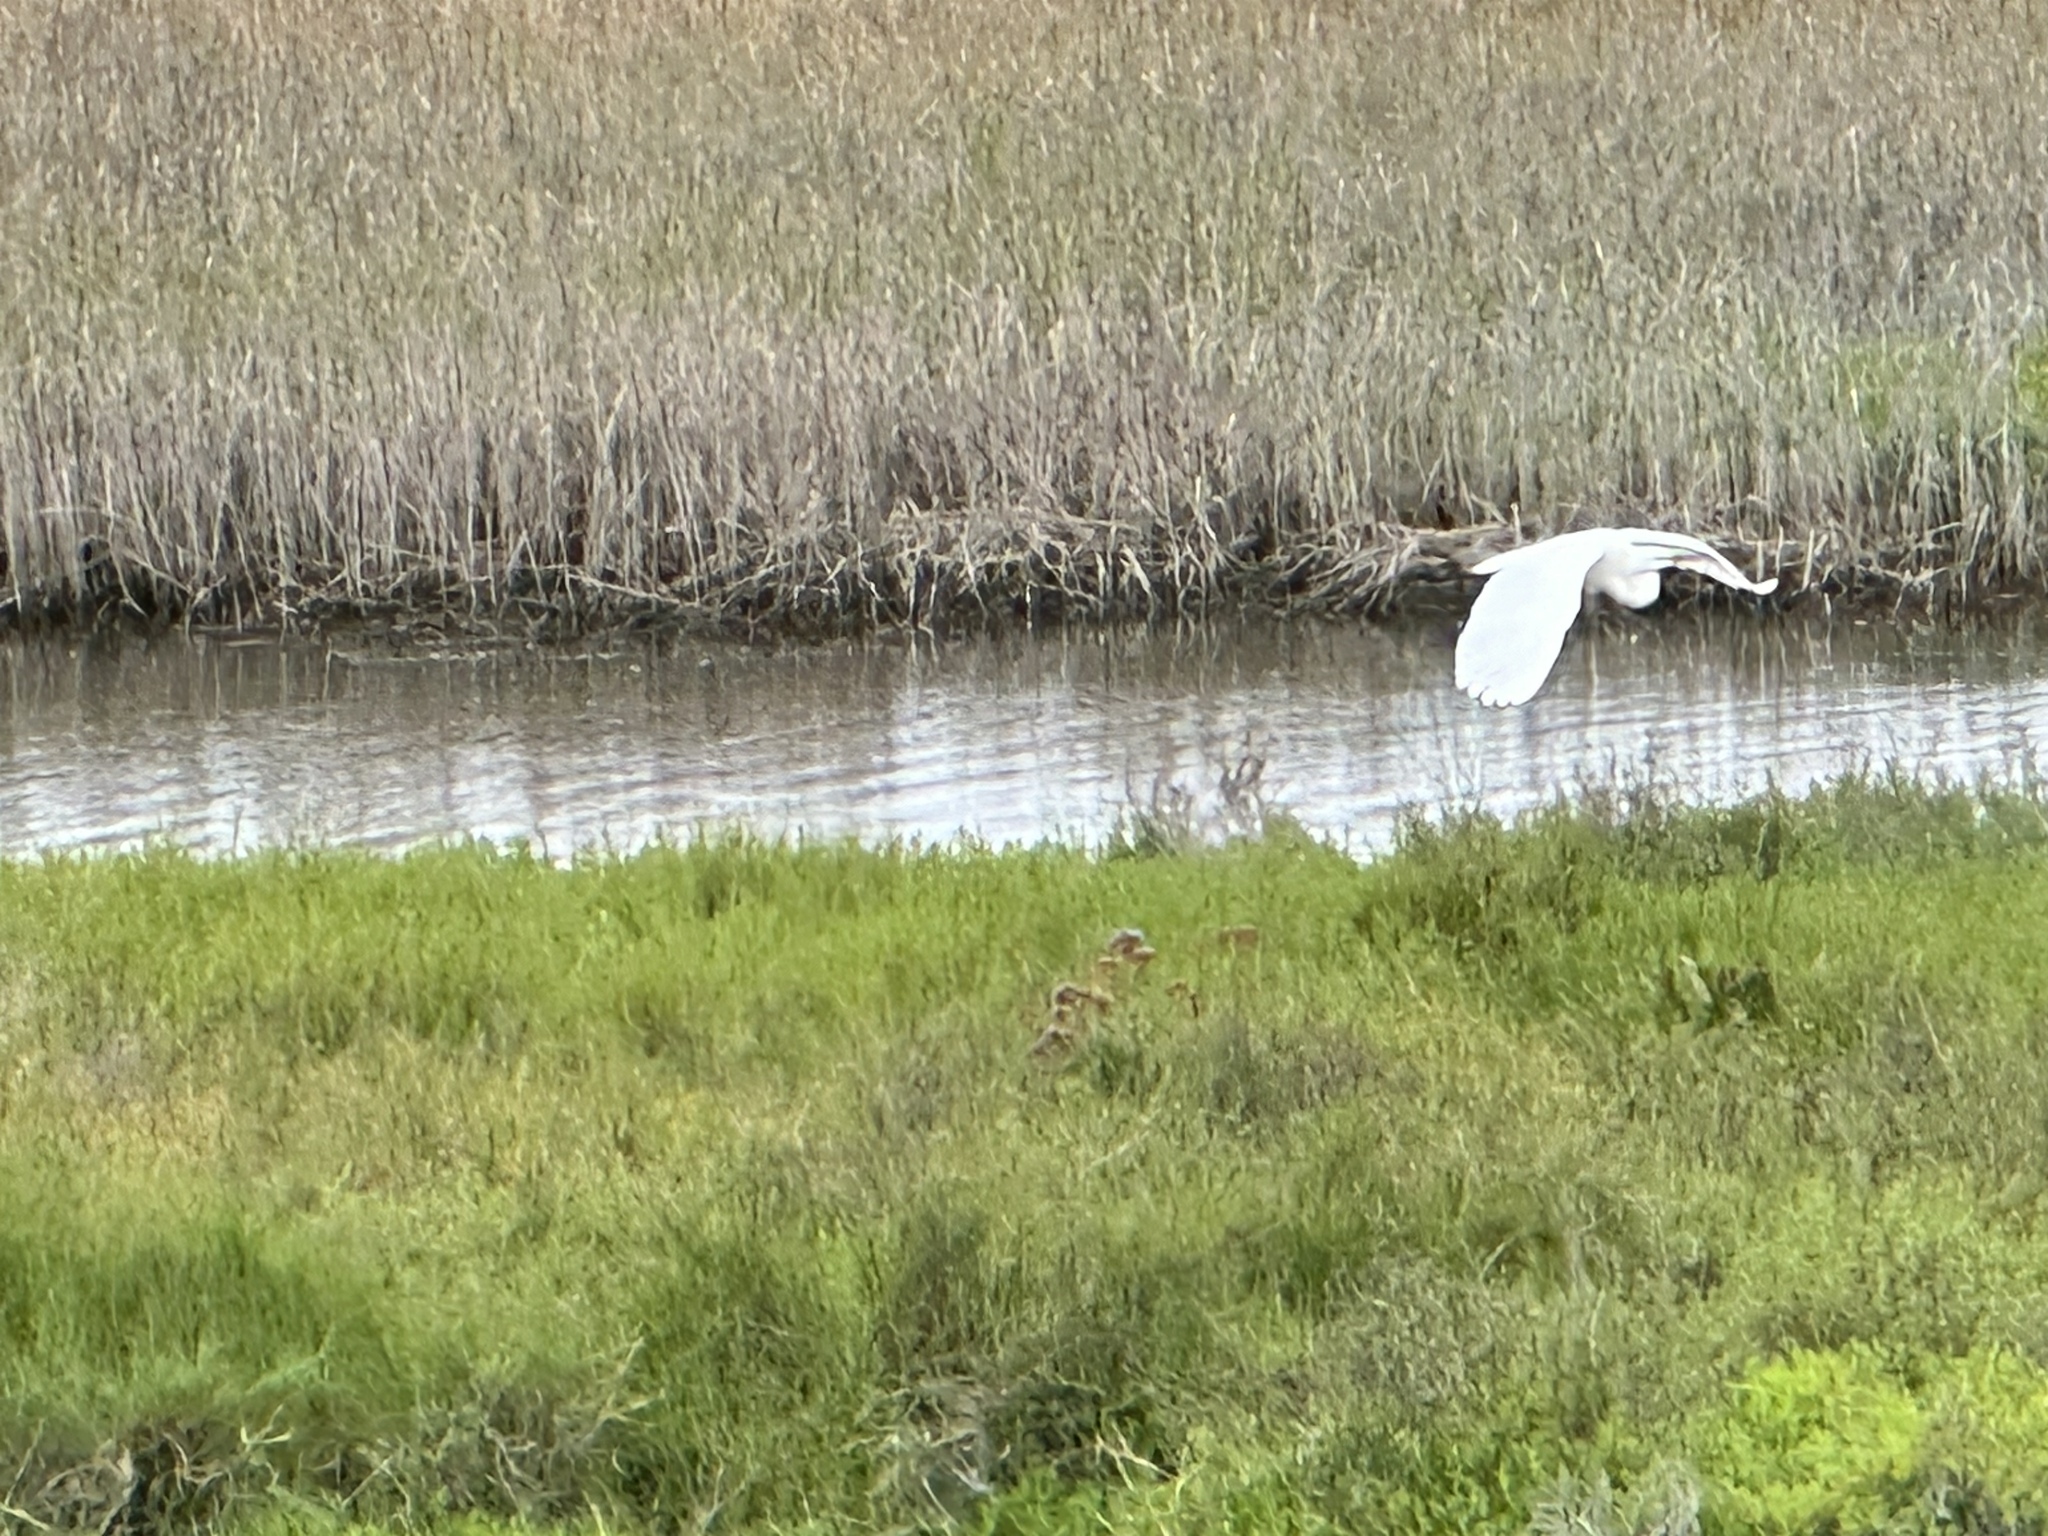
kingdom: Animalia
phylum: Chordata
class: Aves
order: Pelecaniformes
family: Ardeidae
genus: Ardea
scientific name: Ardea alba
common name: Great egret
